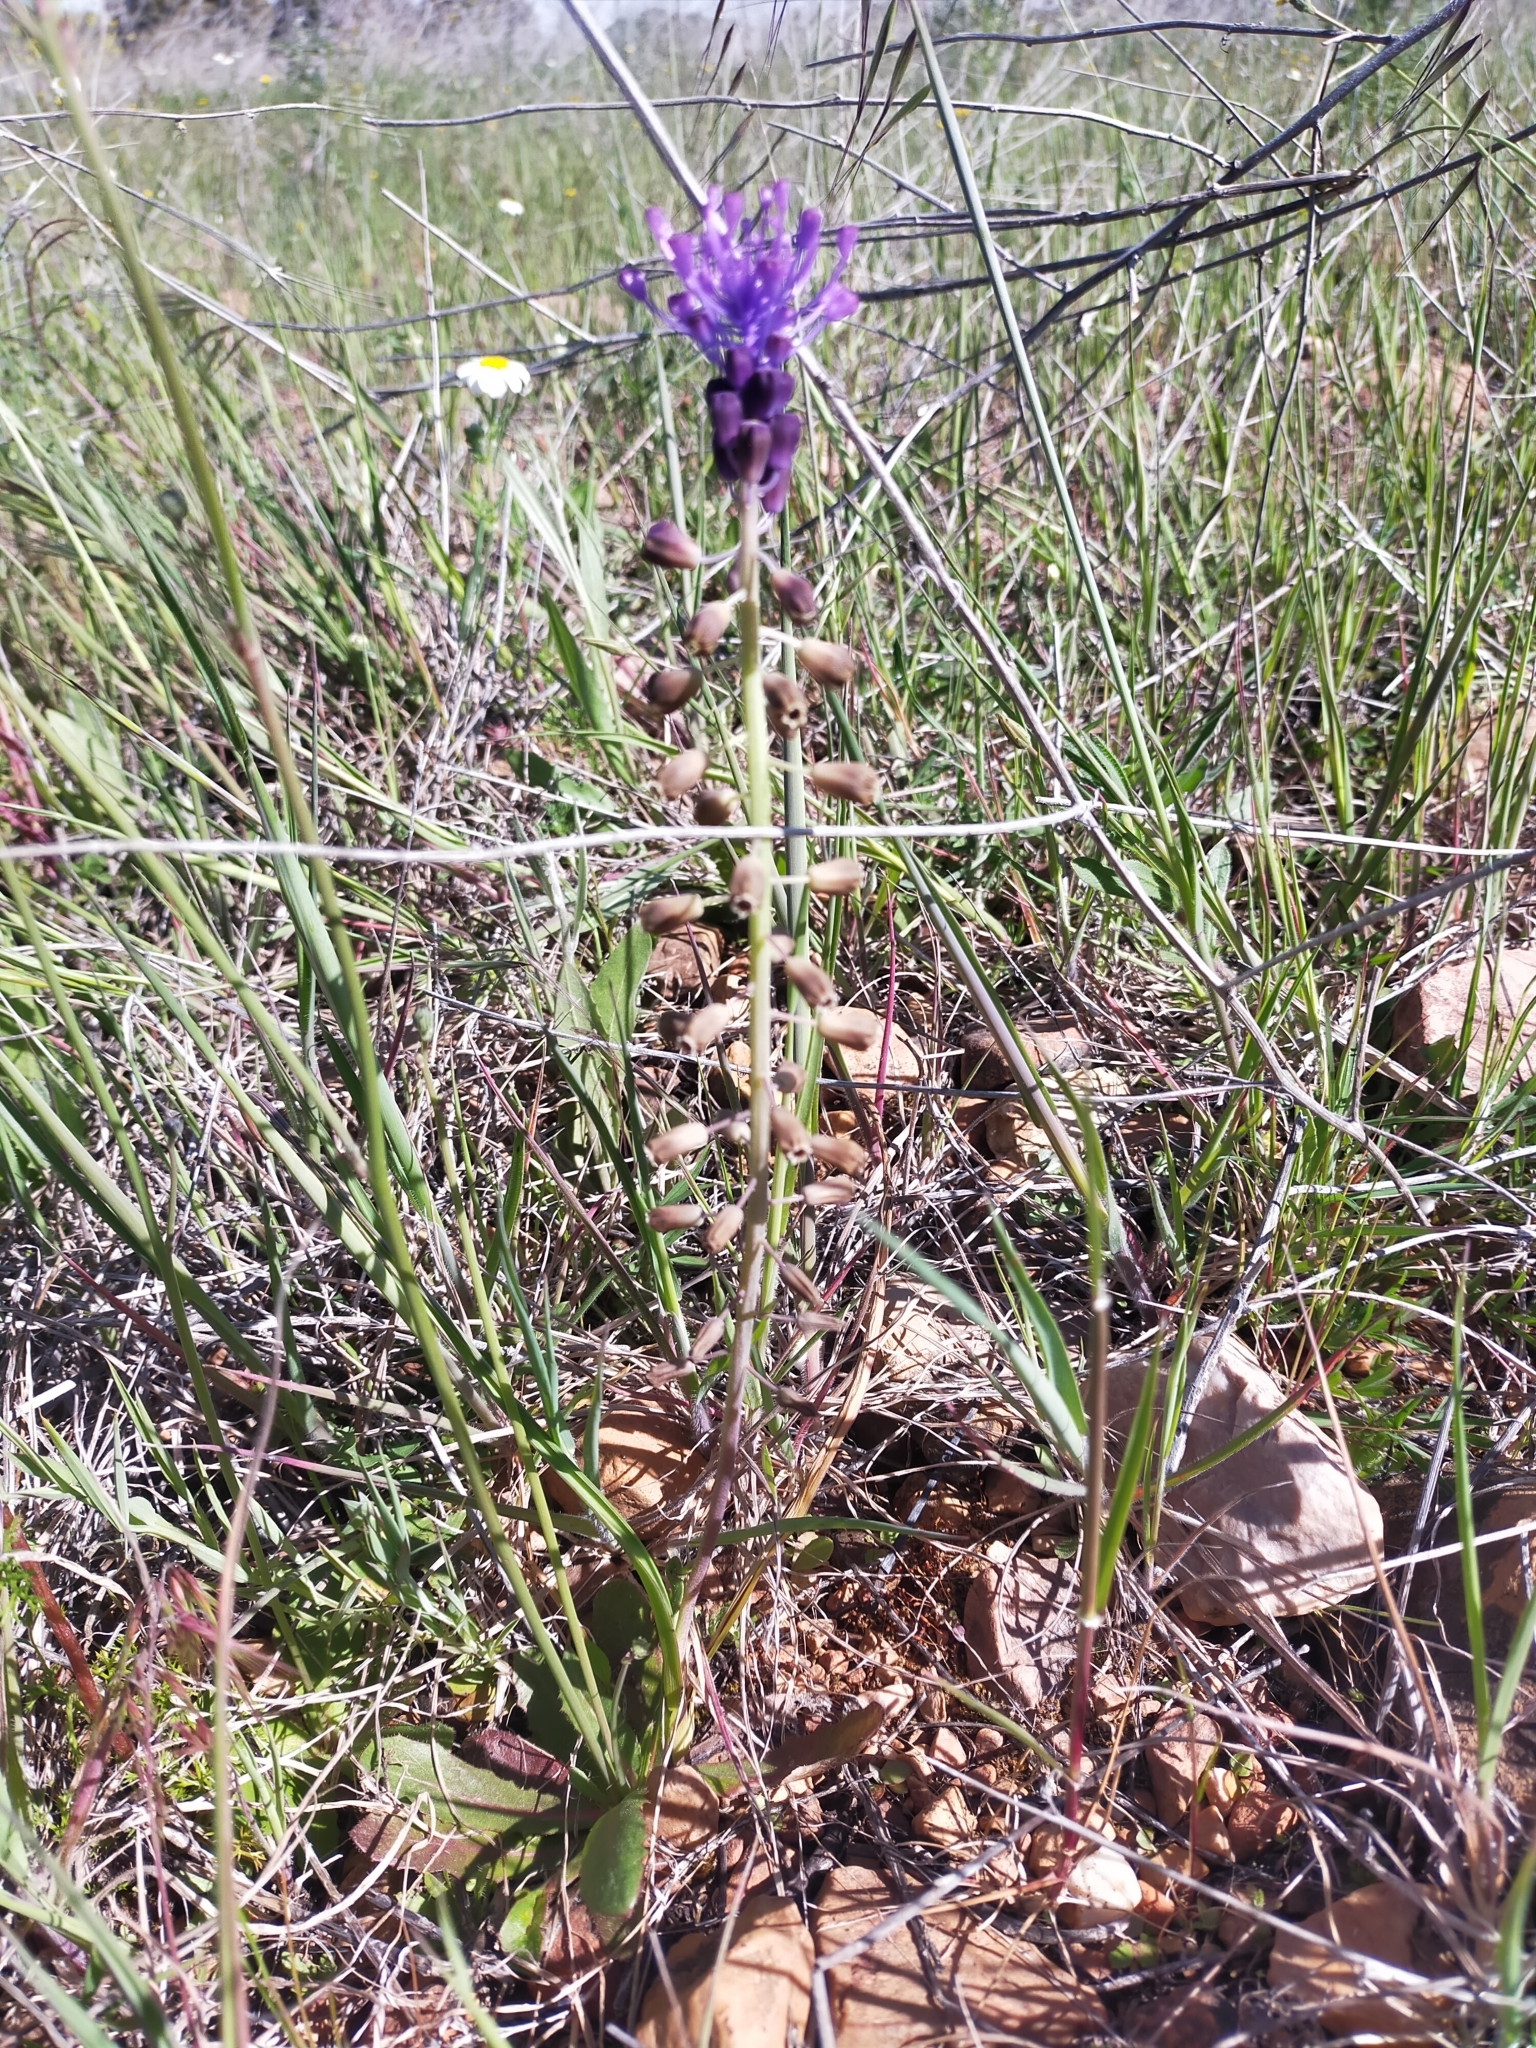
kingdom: Plantae
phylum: Tracheophyta
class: Liliopsida
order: Asparagales
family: Asparagaceae
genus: Muscari
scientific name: Muscari comosum
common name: Tassel hyacinth
